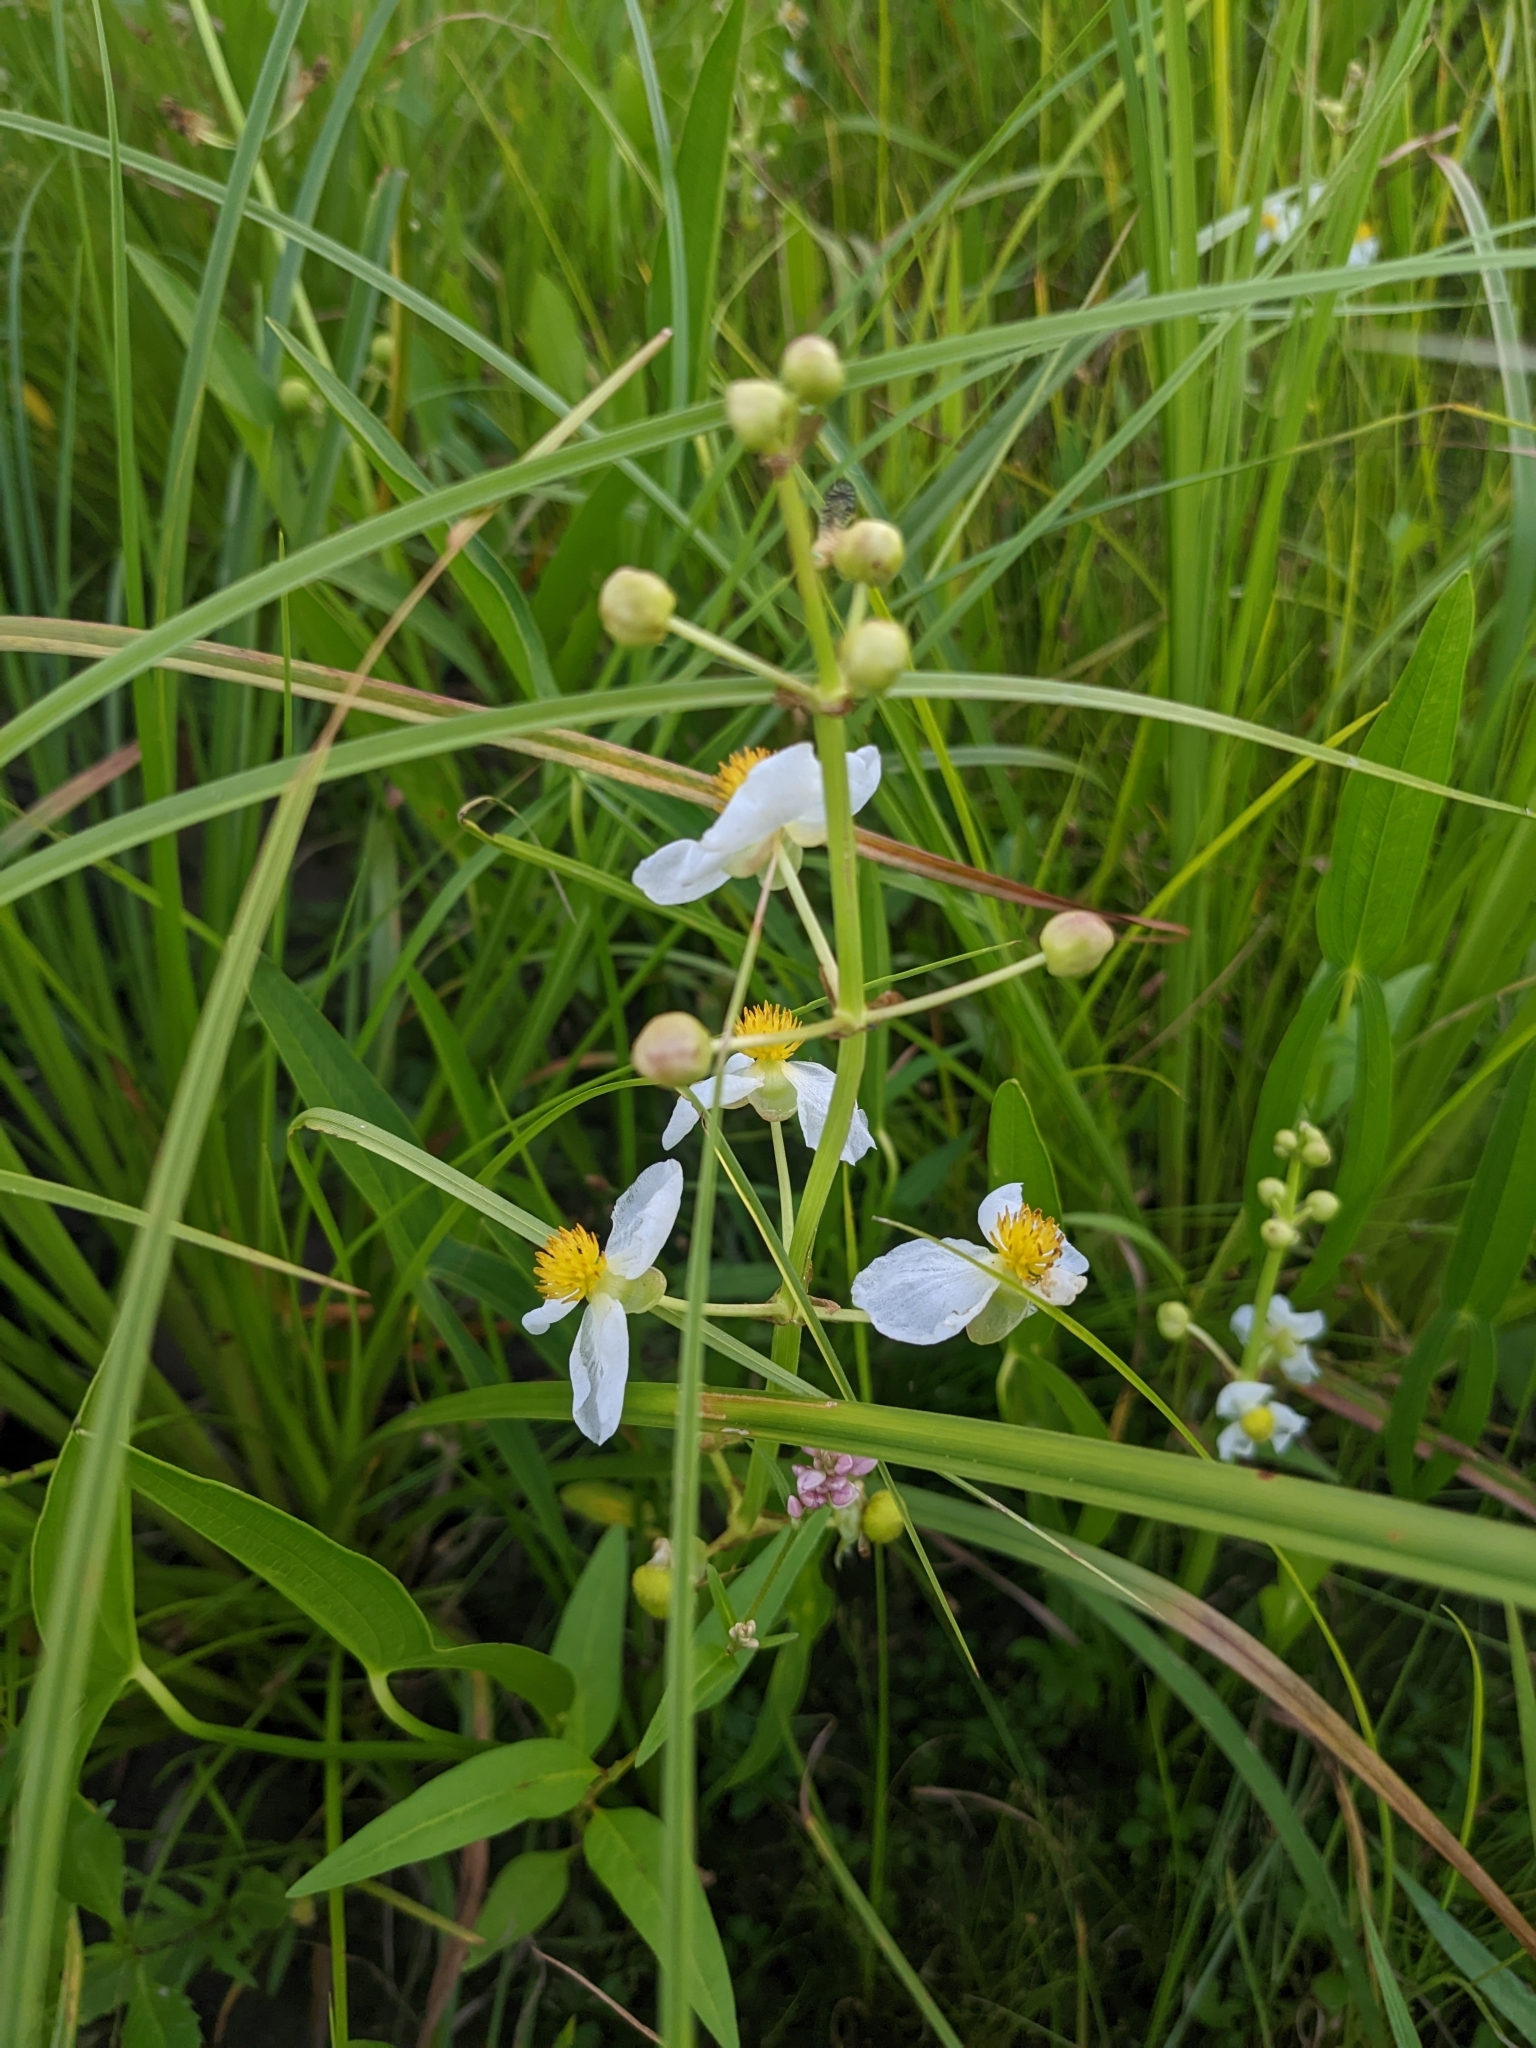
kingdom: Plantae
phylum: Tracheophyta
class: Liliopsida
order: Alismatales
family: Alismataceae
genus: Sagittaria
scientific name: Sagittaria latifolia
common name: Duck-potato
